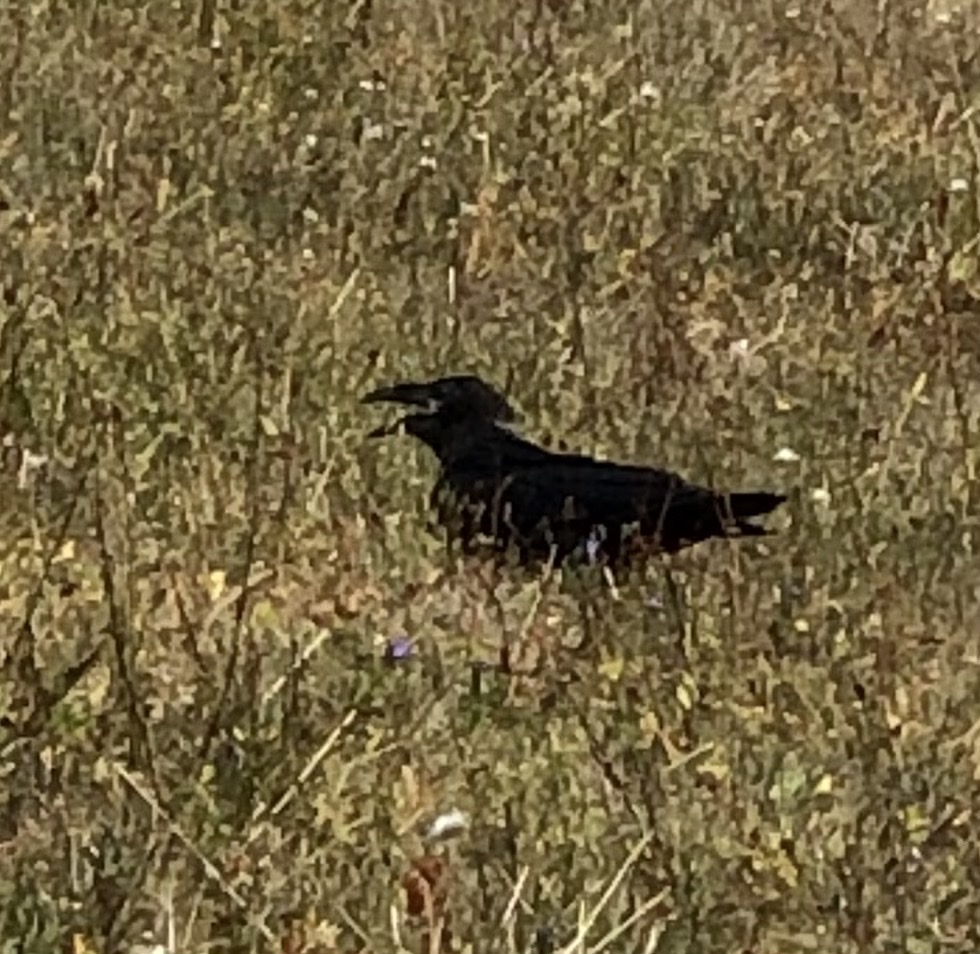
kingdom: Animalia
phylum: Chordata
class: Aves
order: Passeriformes
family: Corvidae
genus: Corvus
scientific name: Corvus corax
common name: Common raven
